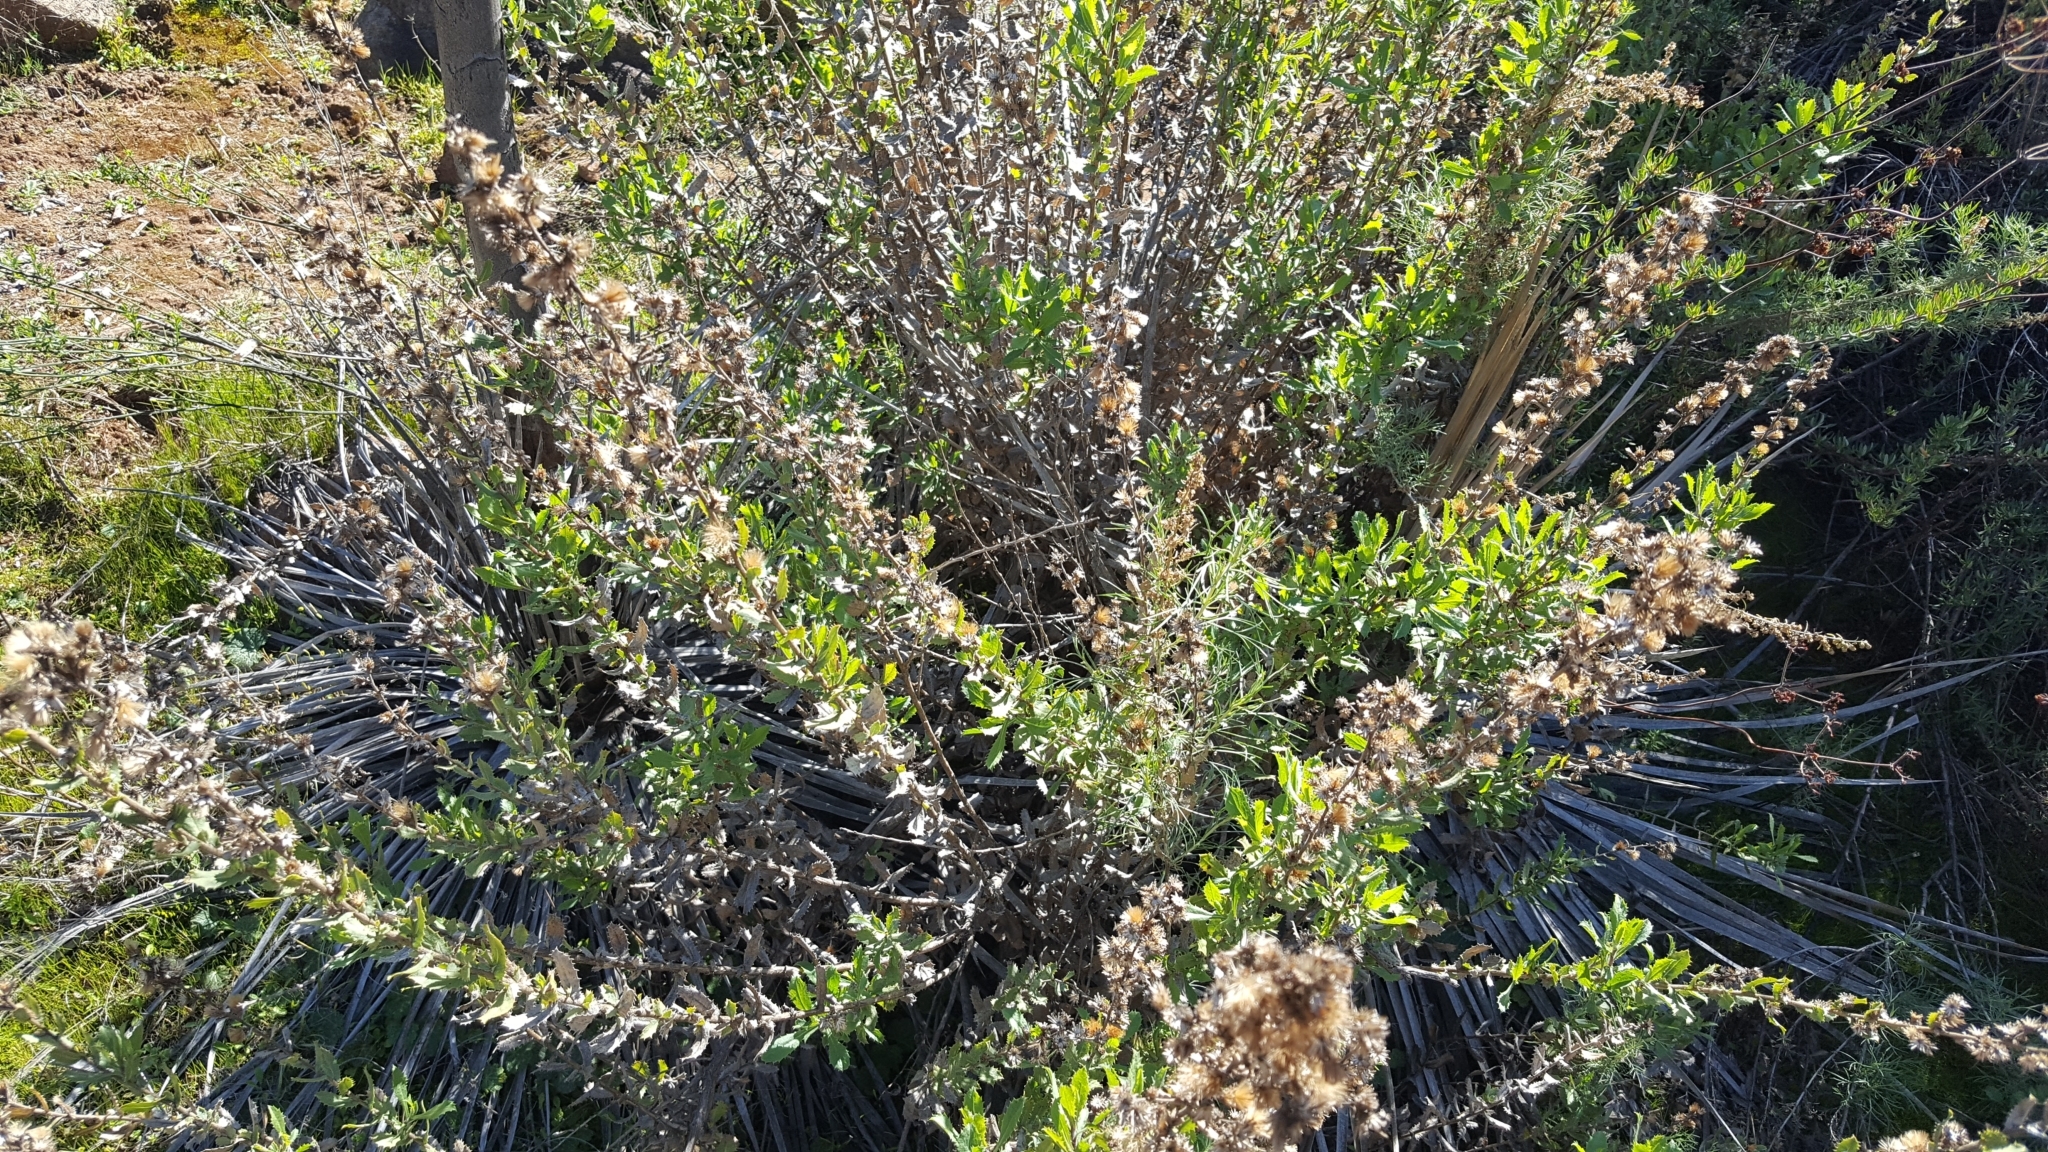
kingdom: Plantae
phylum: Tracheophyta
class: Magnoliopsida
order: Asterales
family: Asteraceae
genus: Hazardia
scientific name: Hazardia squarrosa
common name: Saw-tooth goldenbush
